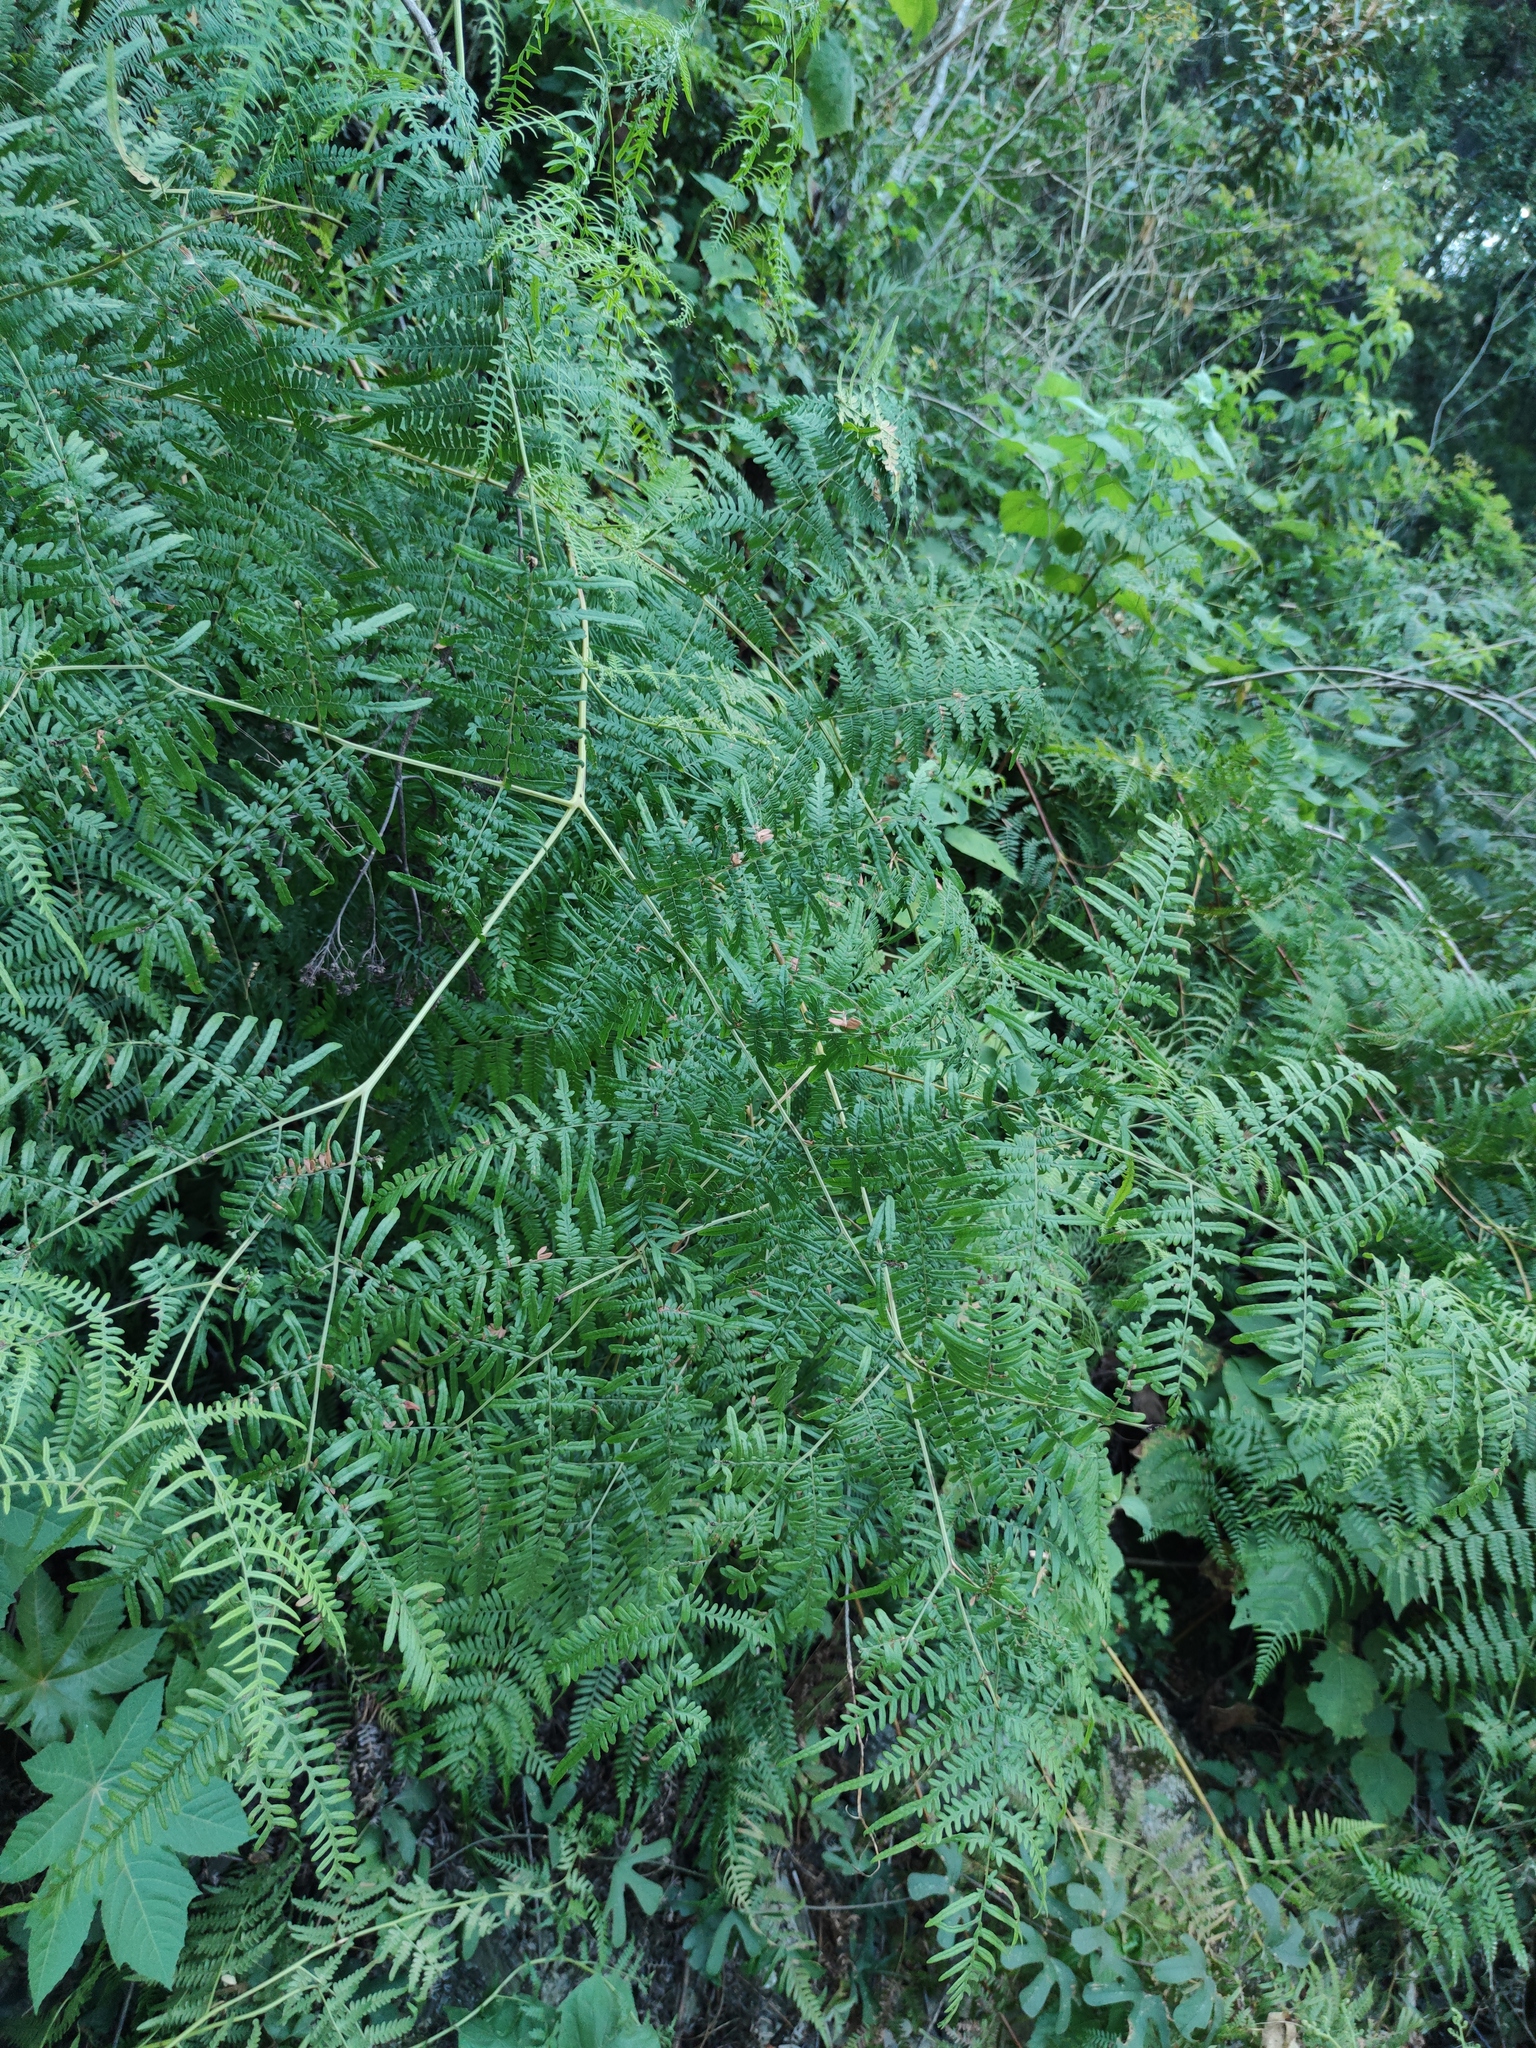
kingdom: Plantae
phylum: Tracheophyta
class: Polypodiopsida
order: Polypodiales
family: Dennstaedtiaceae
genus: Pteridium
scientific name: Pteridium caudatum
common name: Southern bracken fern
